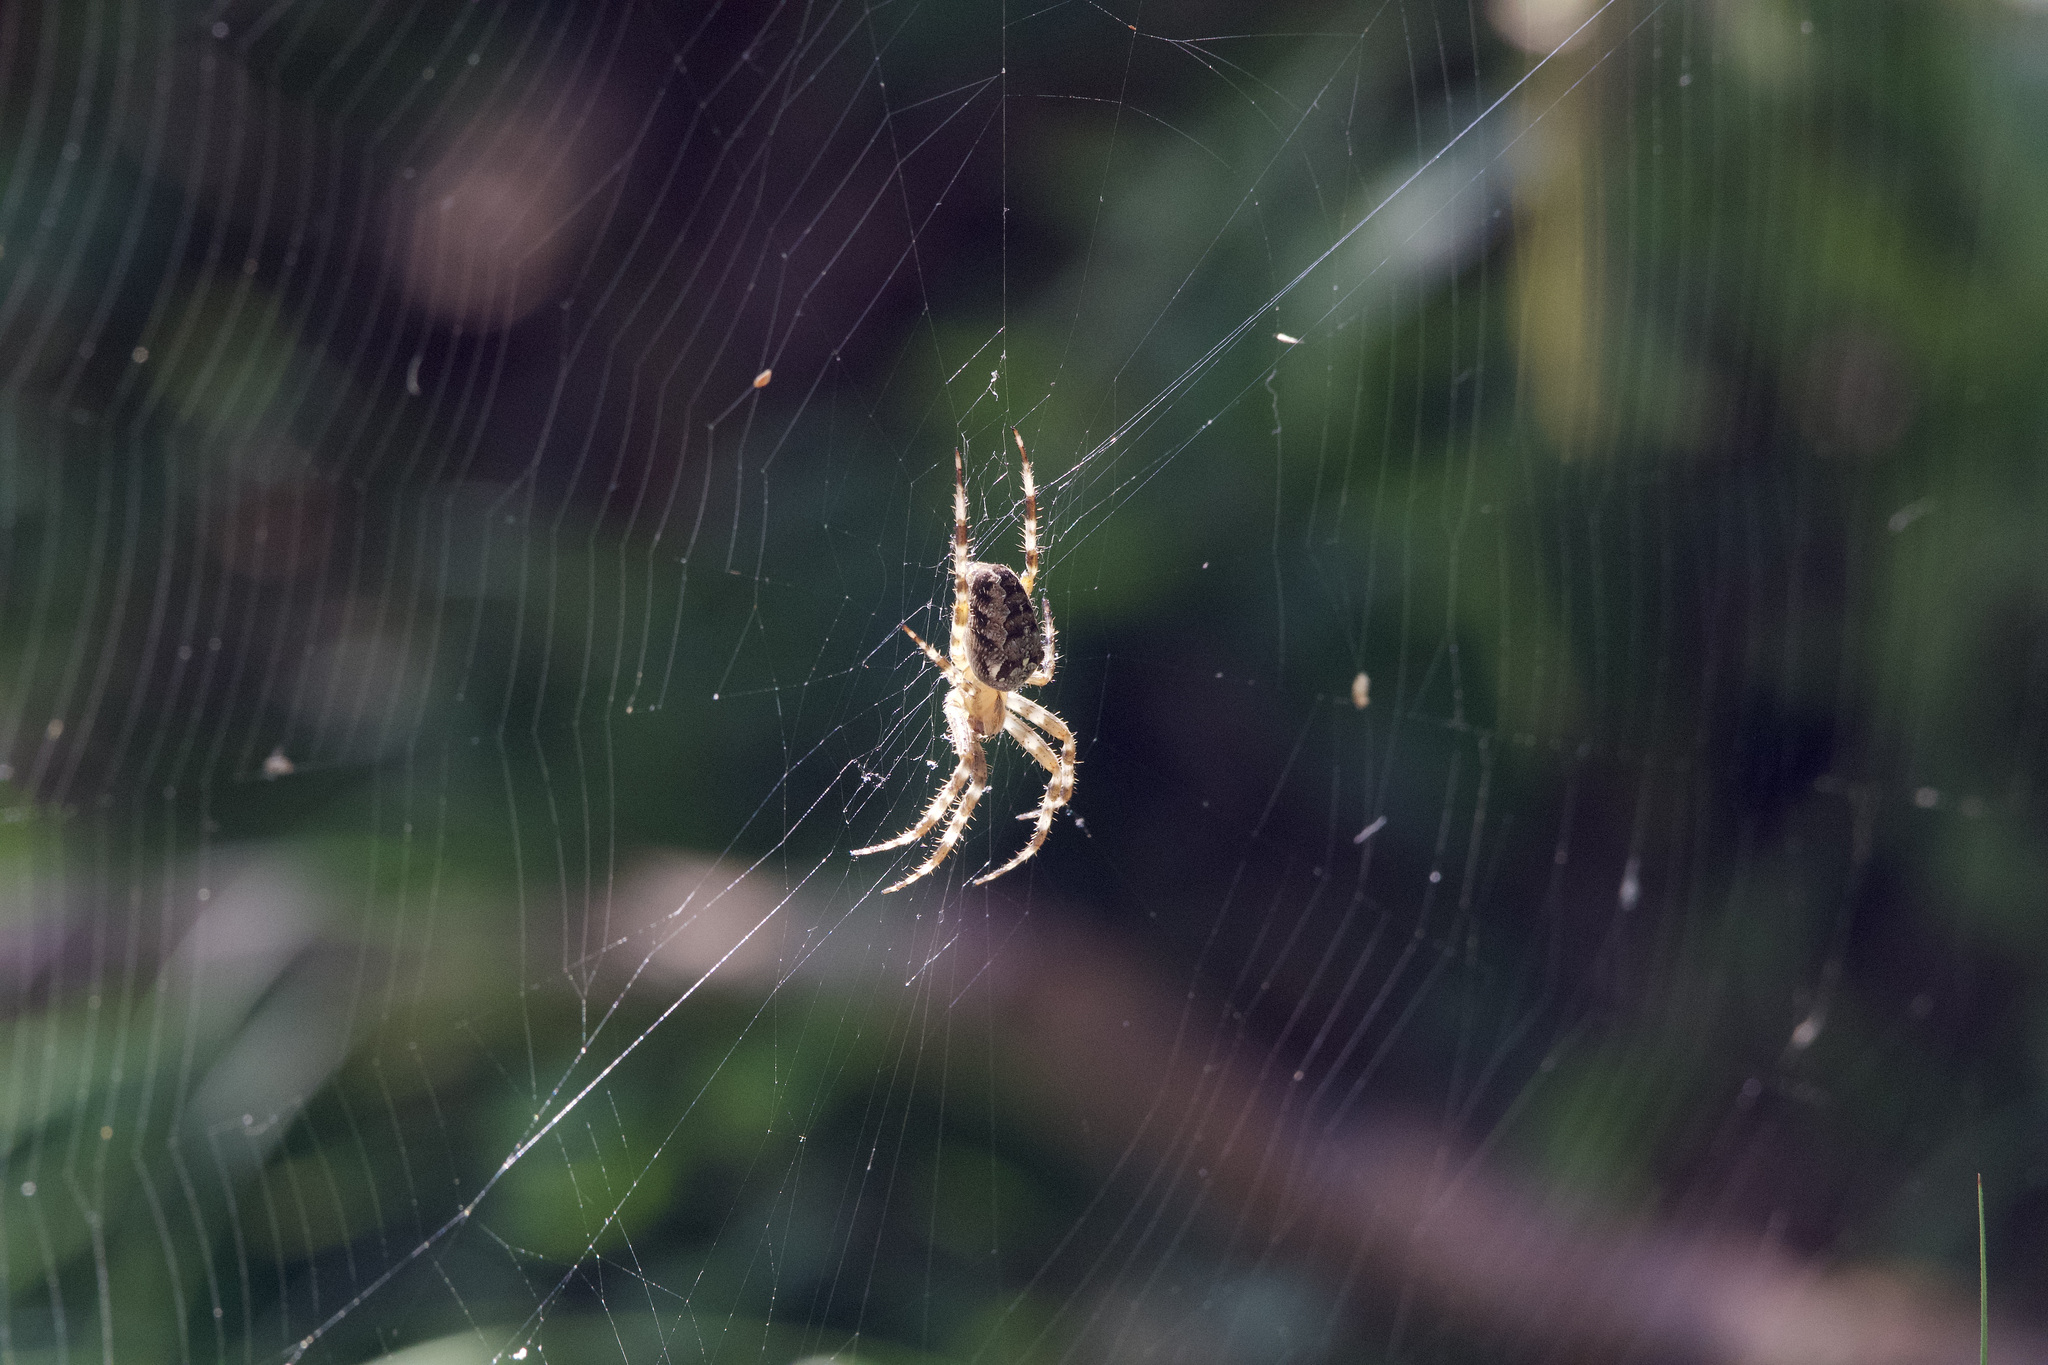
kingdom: Animalia
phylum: Arthropoda
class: Arachnida
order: Araneae
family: Araneidae
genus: Araneus
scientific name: Araneus diadematus
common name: Cross orbweaver
